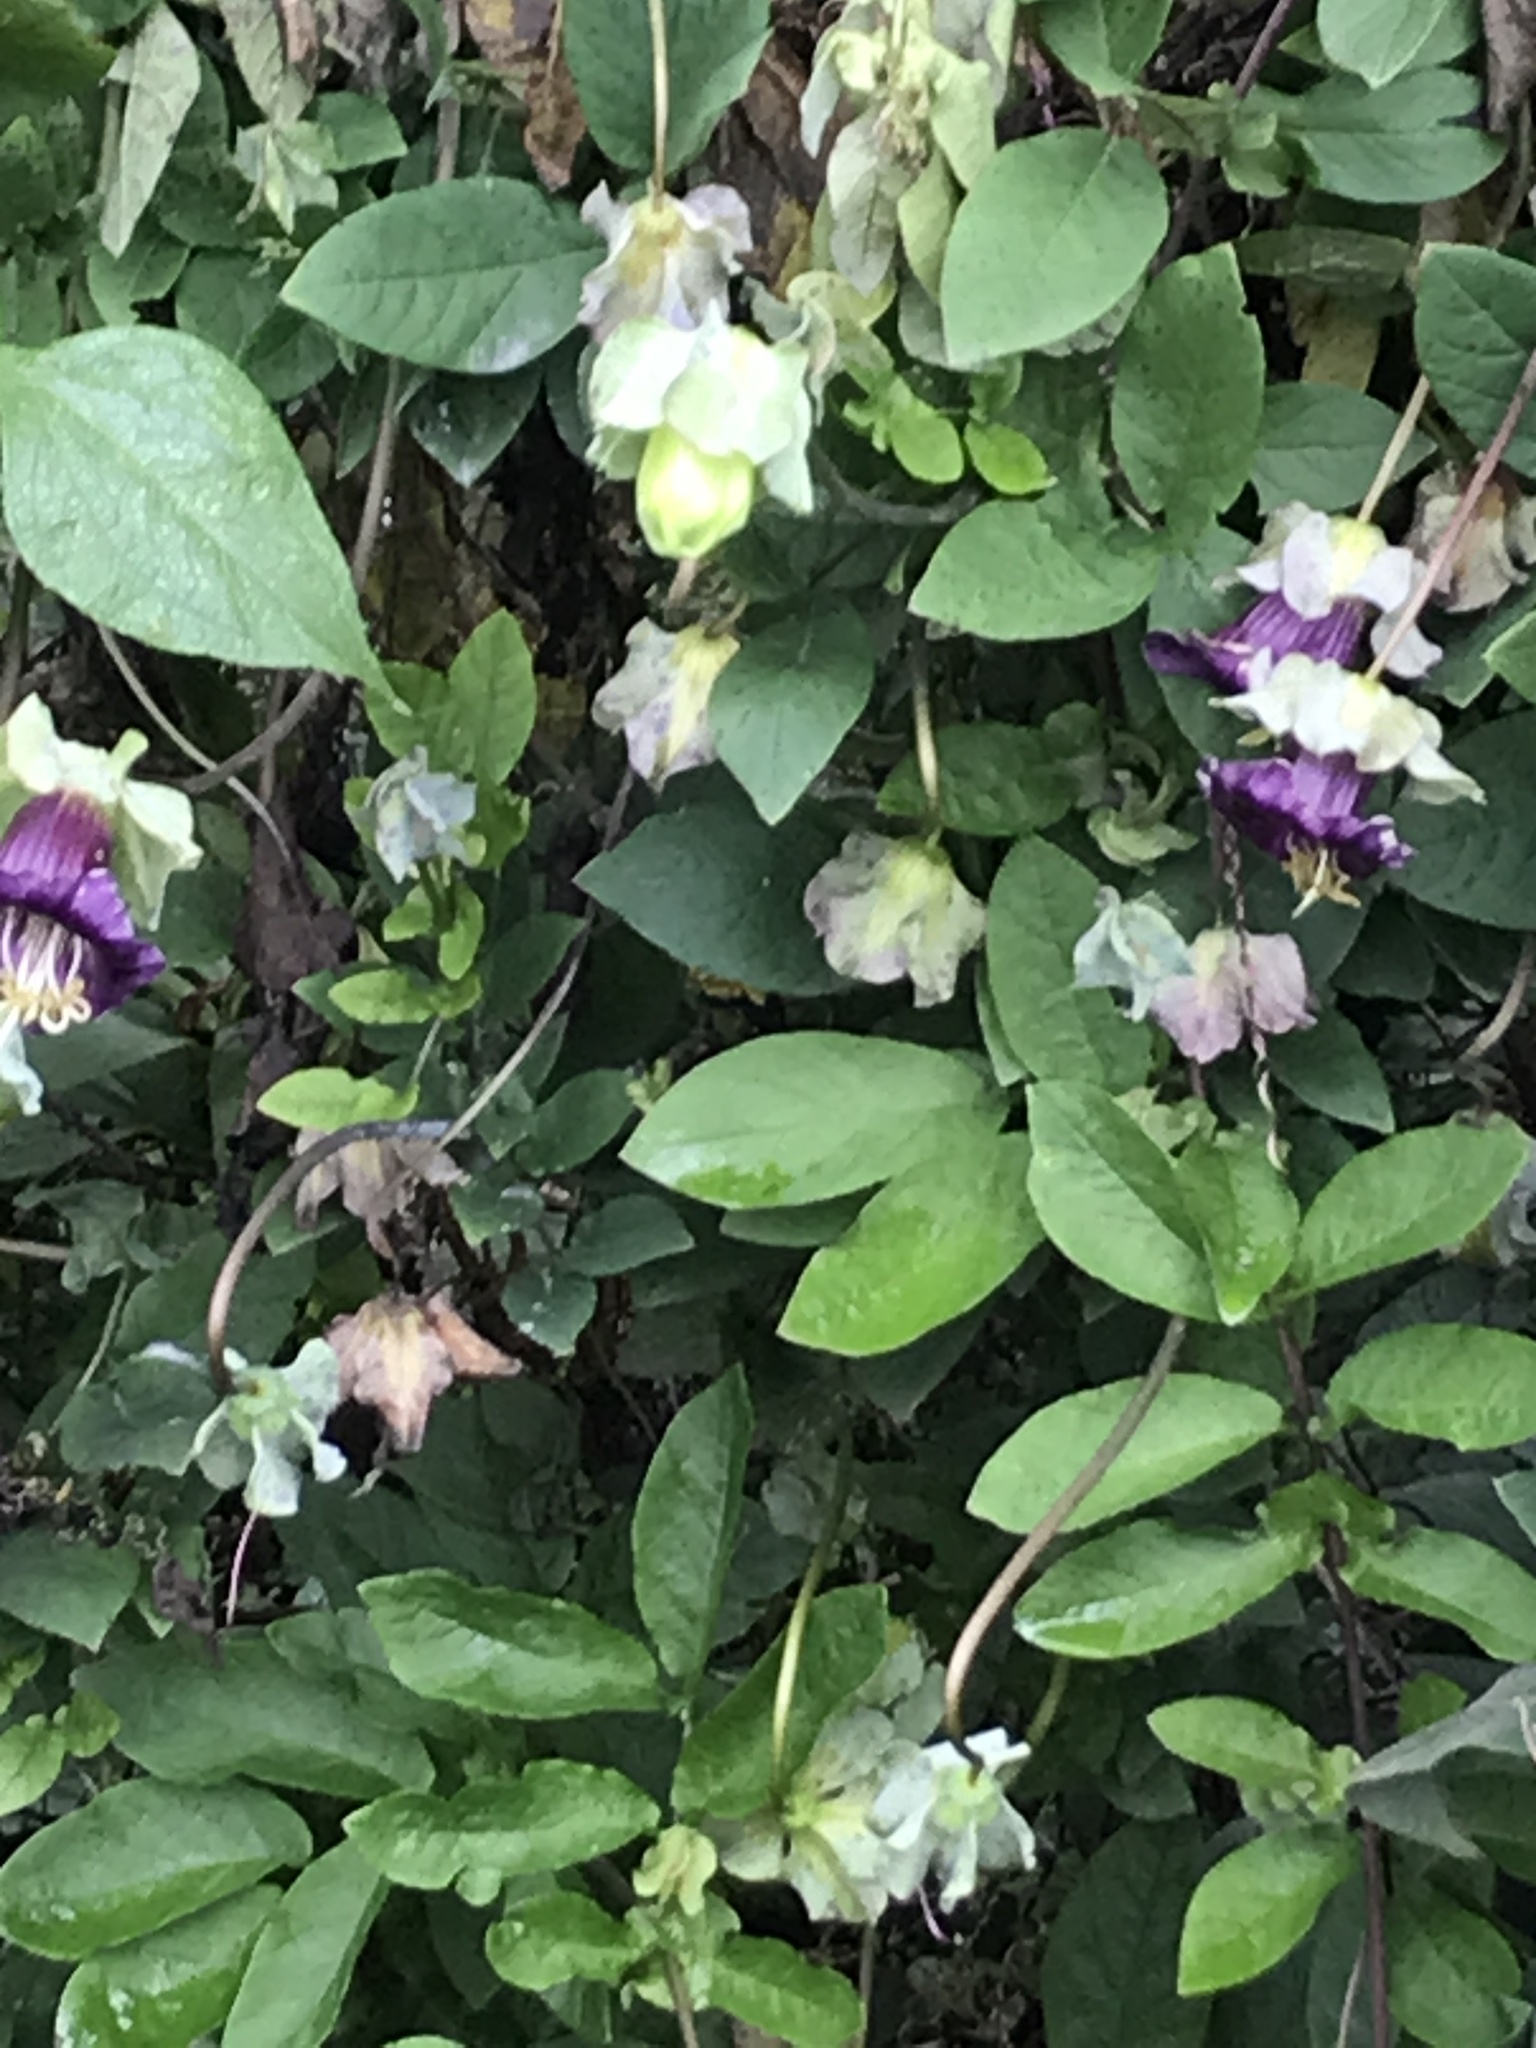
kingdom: Plantae
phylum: Tracheophyta
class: Magnoliopsida
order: Ericales
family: Polemoniaceae
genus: Cobaea
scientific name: Cobaea scandens
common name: Cup-and-saucer-vine
